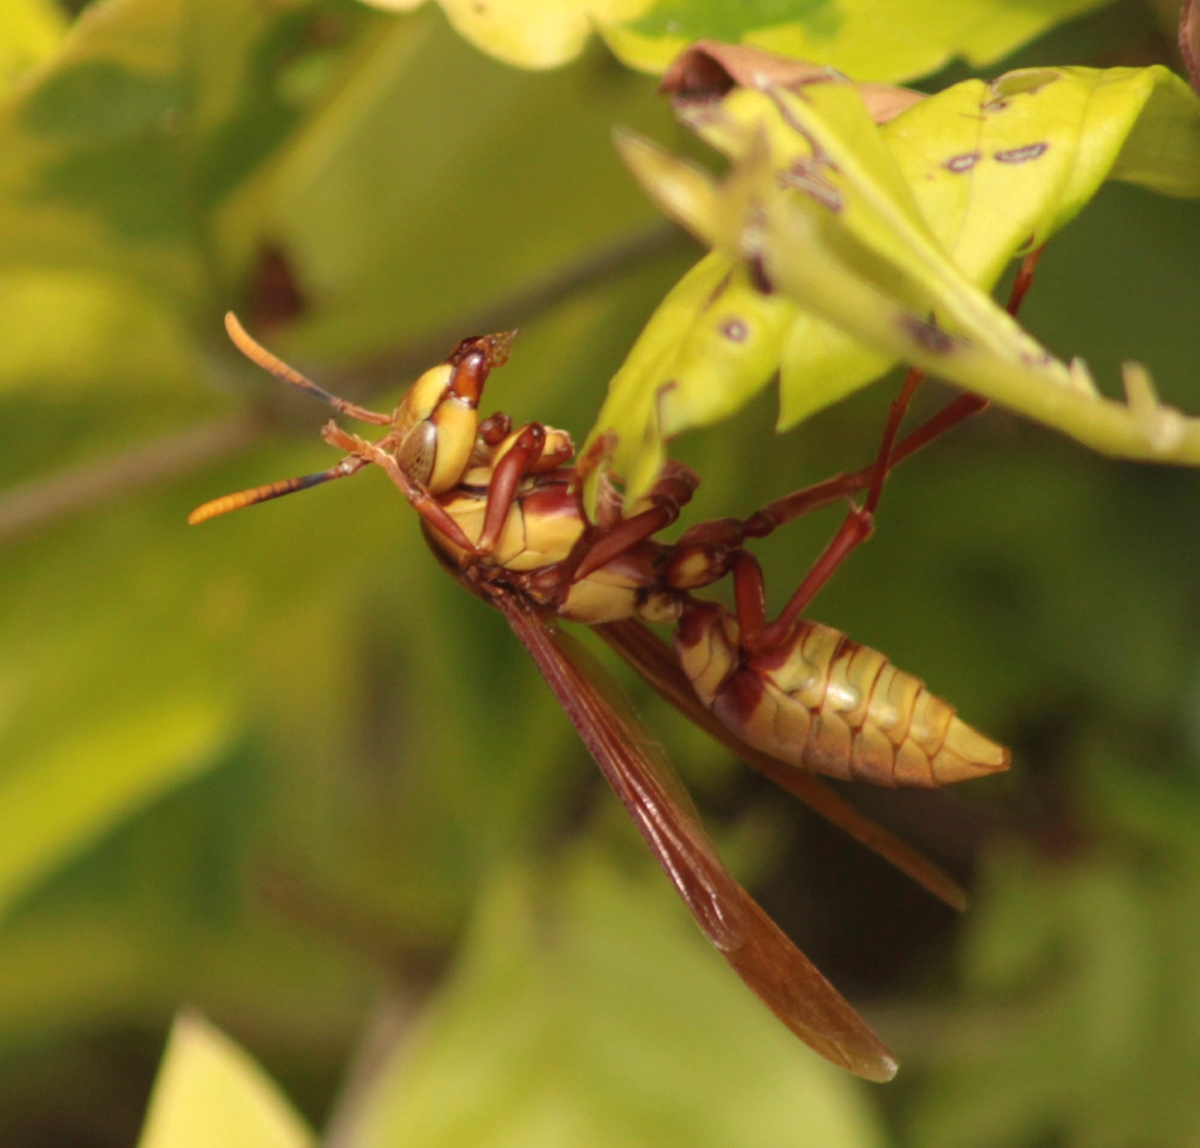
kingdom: Animalia
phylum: Arthropoda
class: Insecta
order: Hymenoptera
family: Eumenidae
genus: Polistes
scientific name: Polistes major
